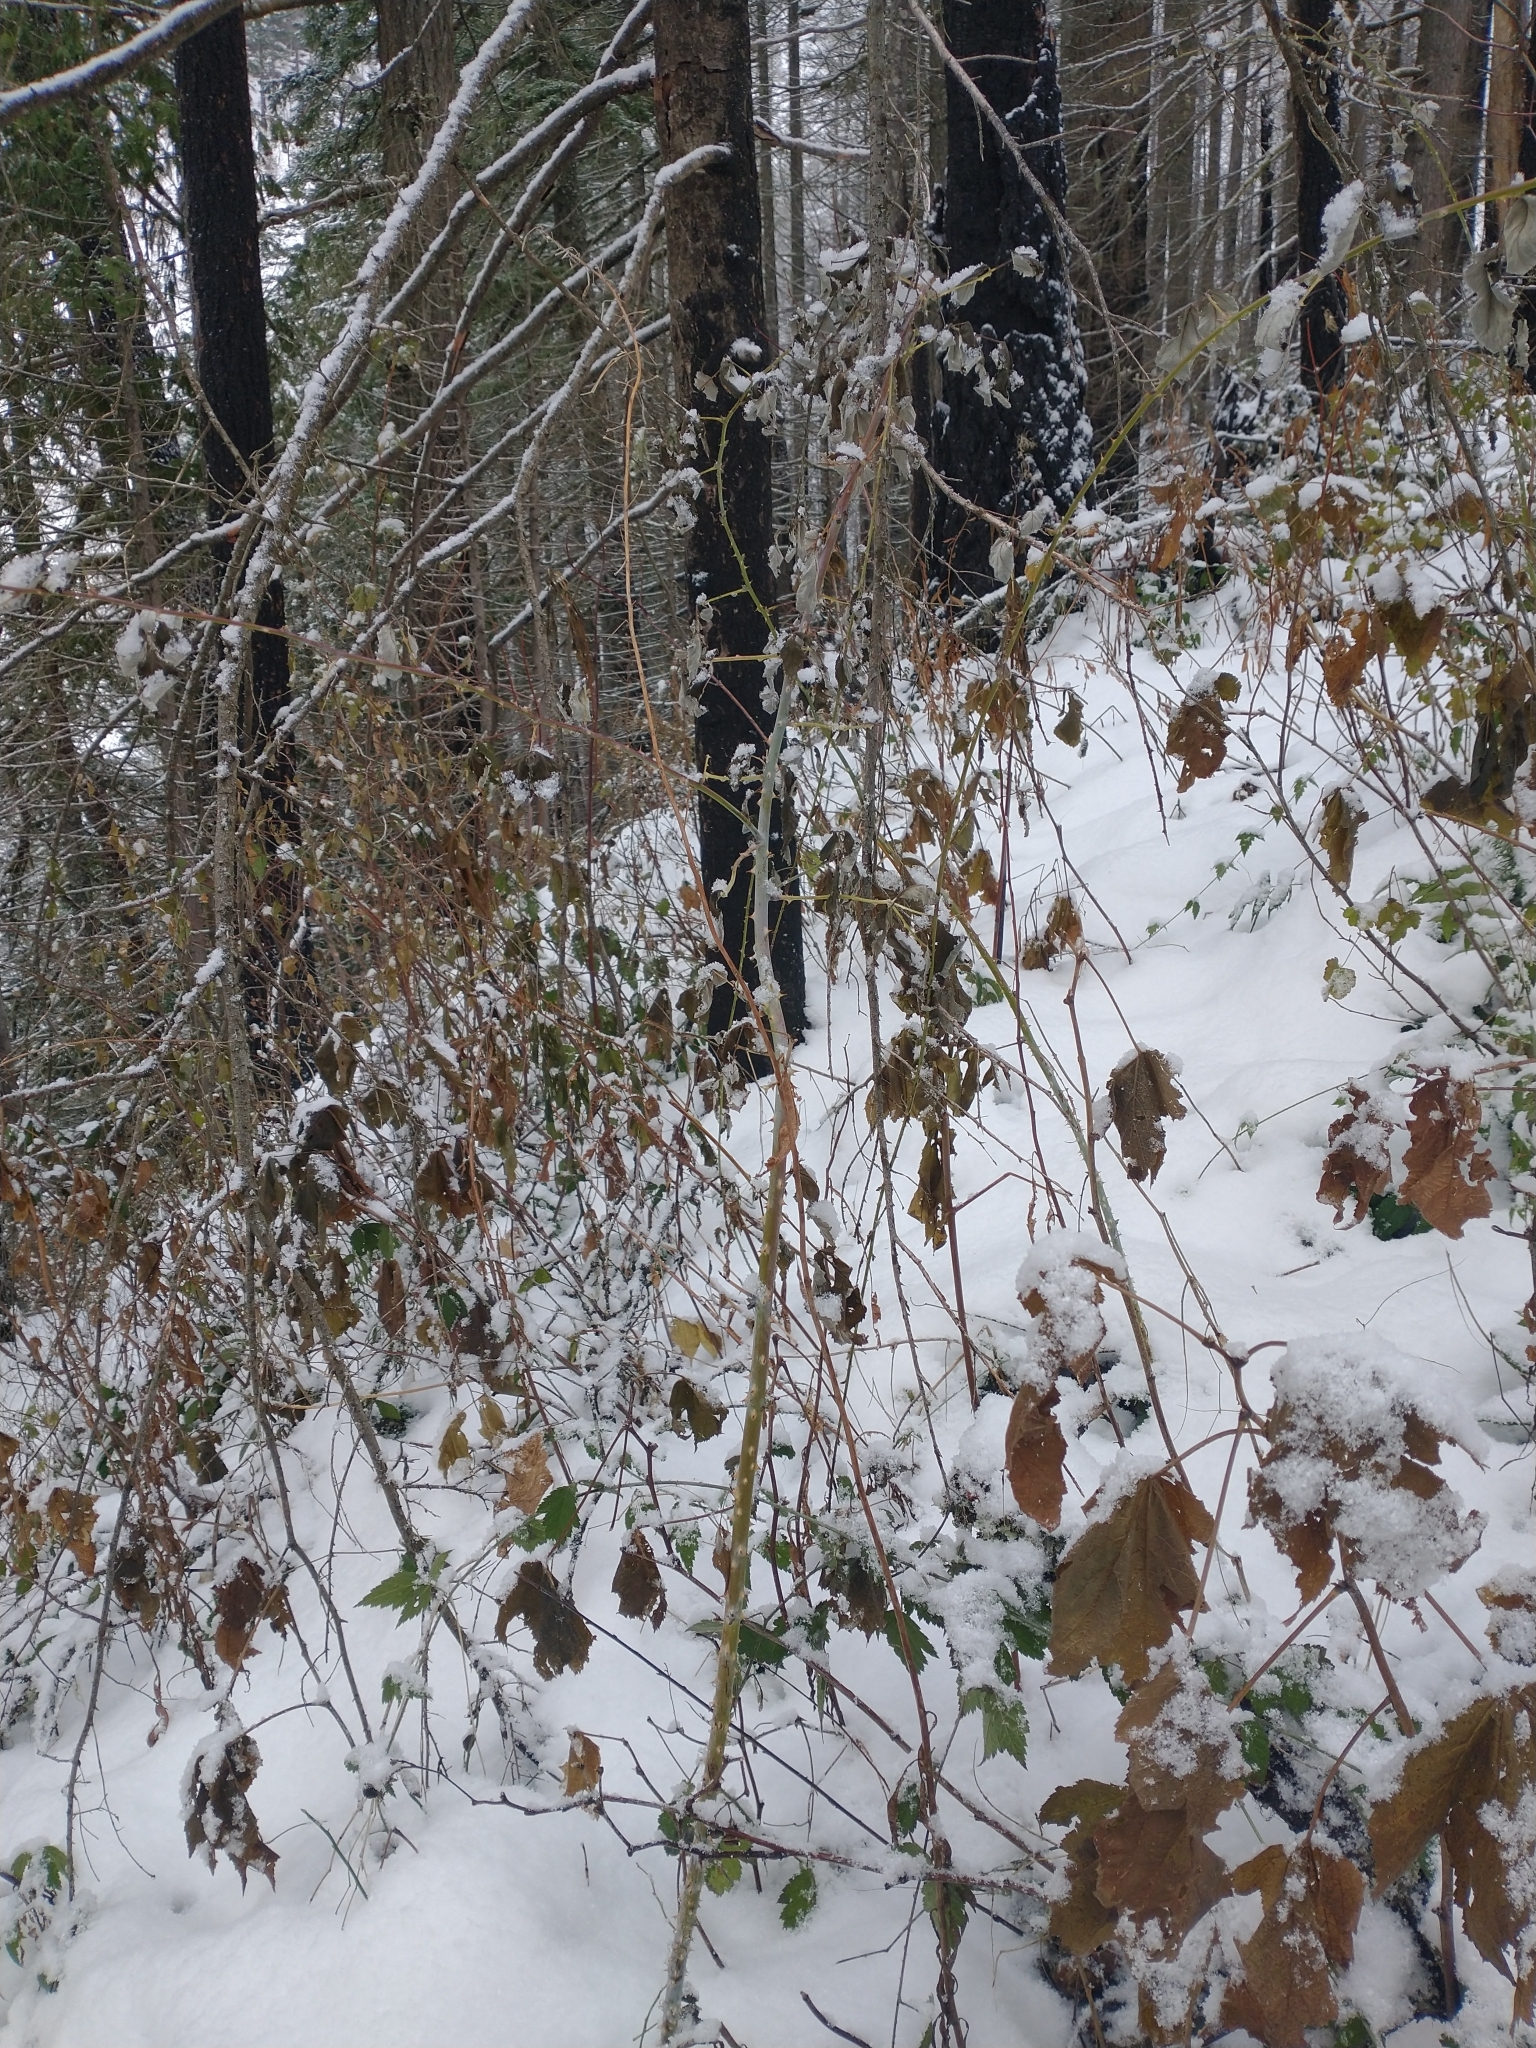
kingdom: Plantae
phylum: Tracheophyta
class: Magnoliopsida
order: Rosales
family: Rosaceae
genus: Rubus
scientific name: Rubus leucodermis
